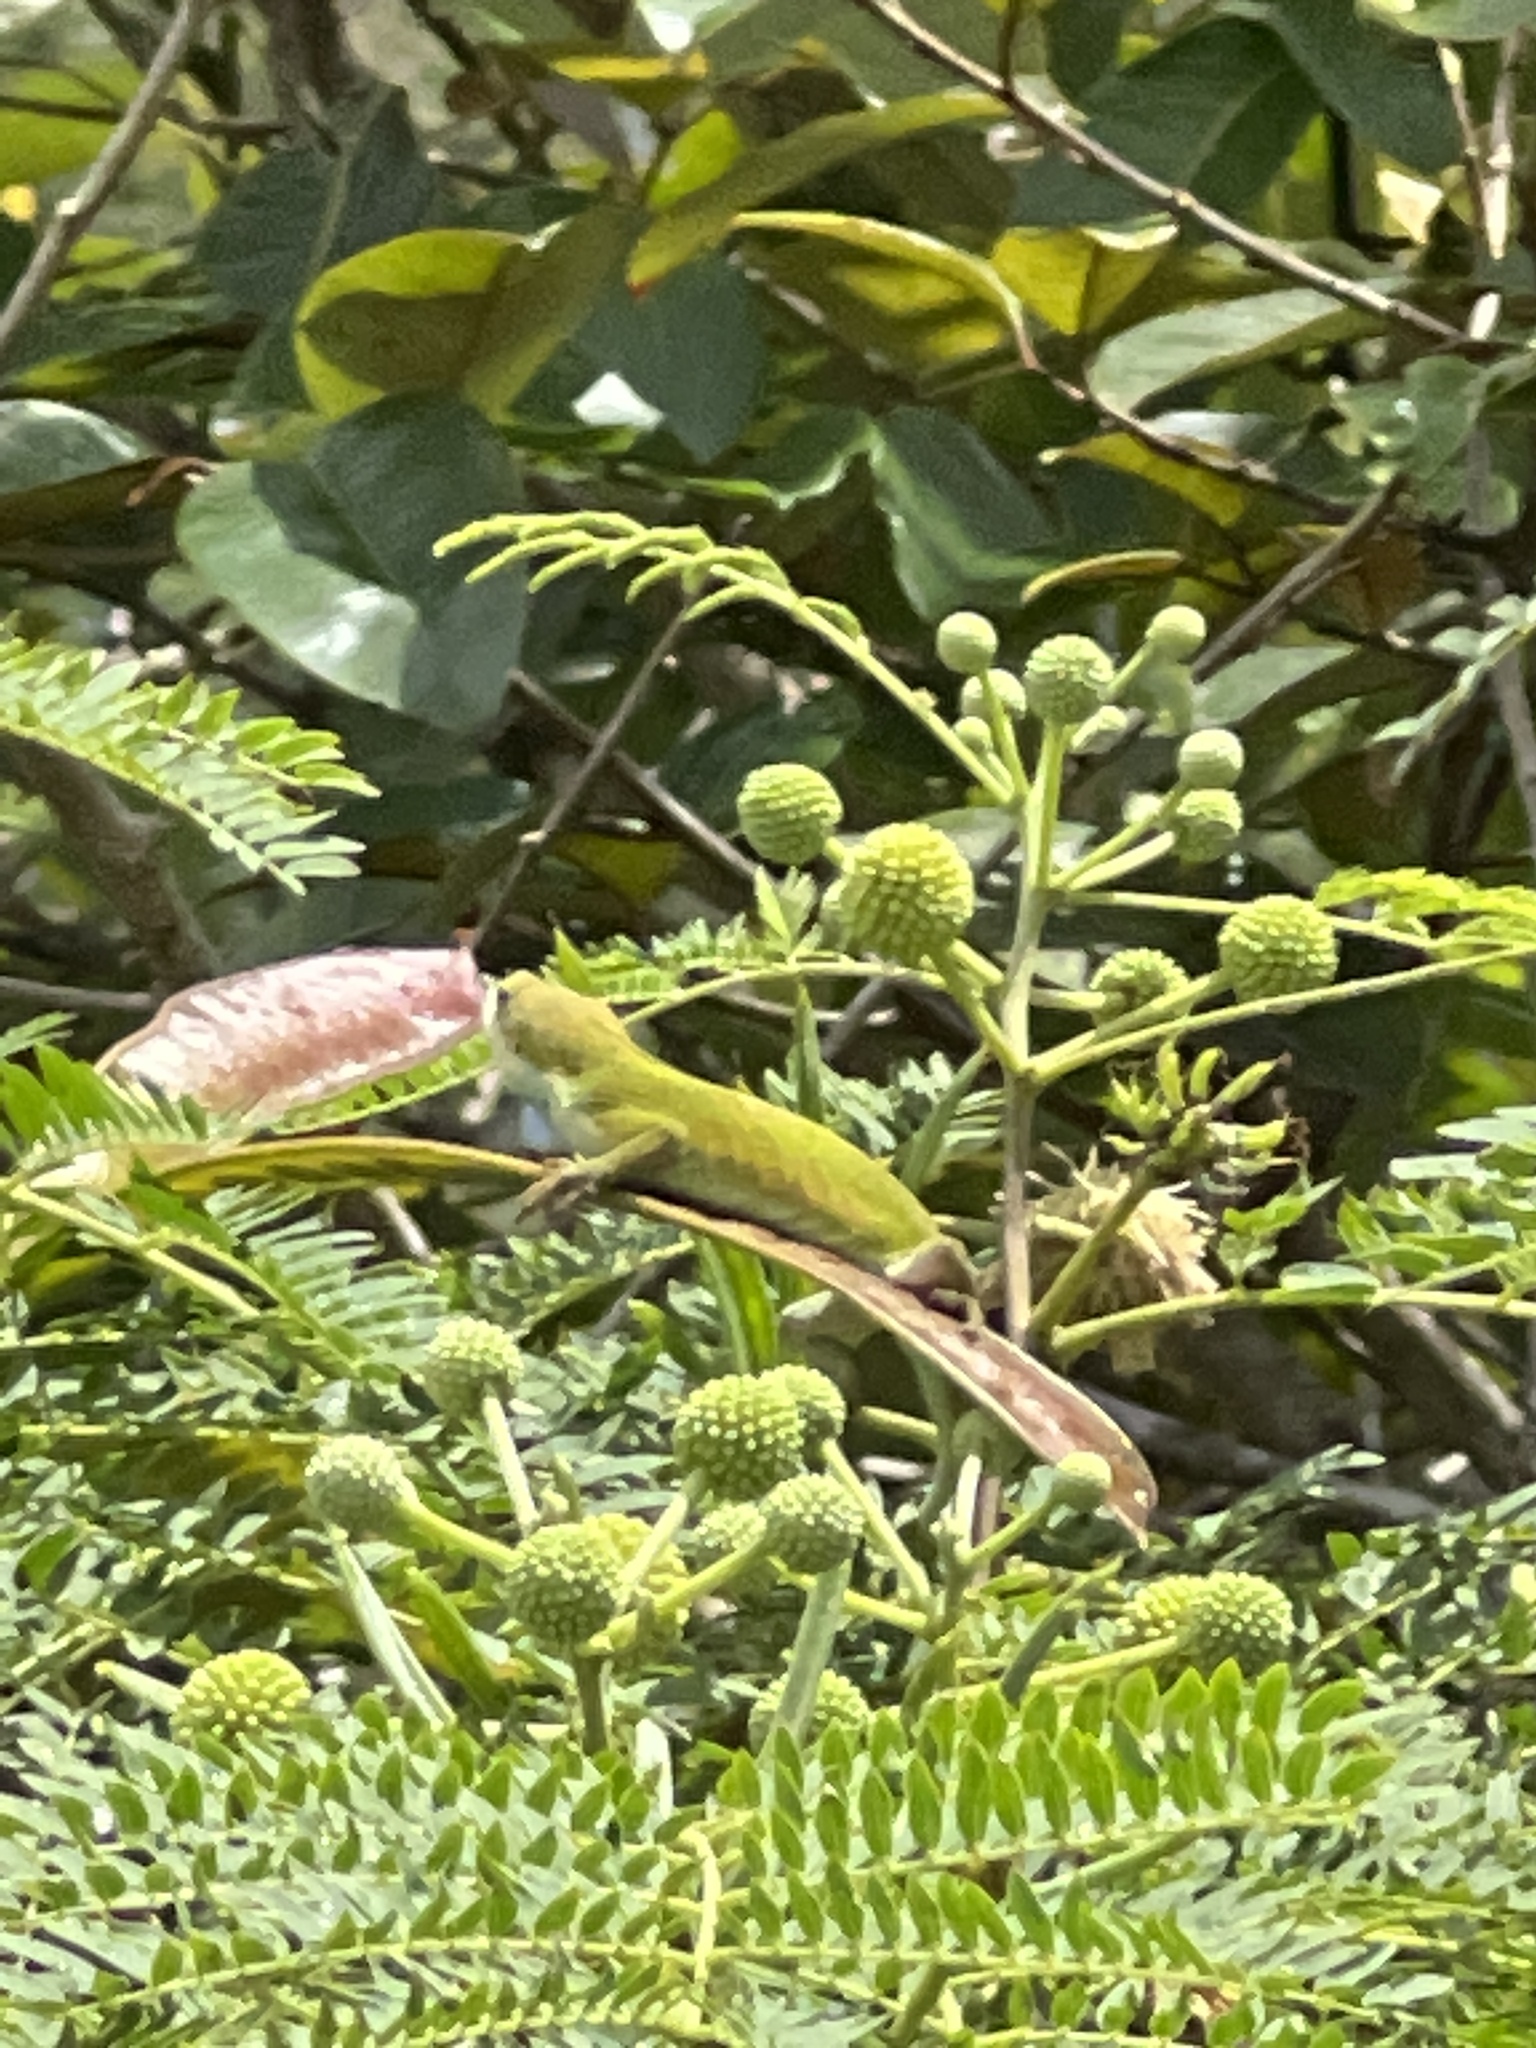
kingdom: Animalia
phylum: Chordata
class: Squamata
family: Dactyloidae
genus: Anolis
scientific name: Anolis carolinensis
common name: Green anole
